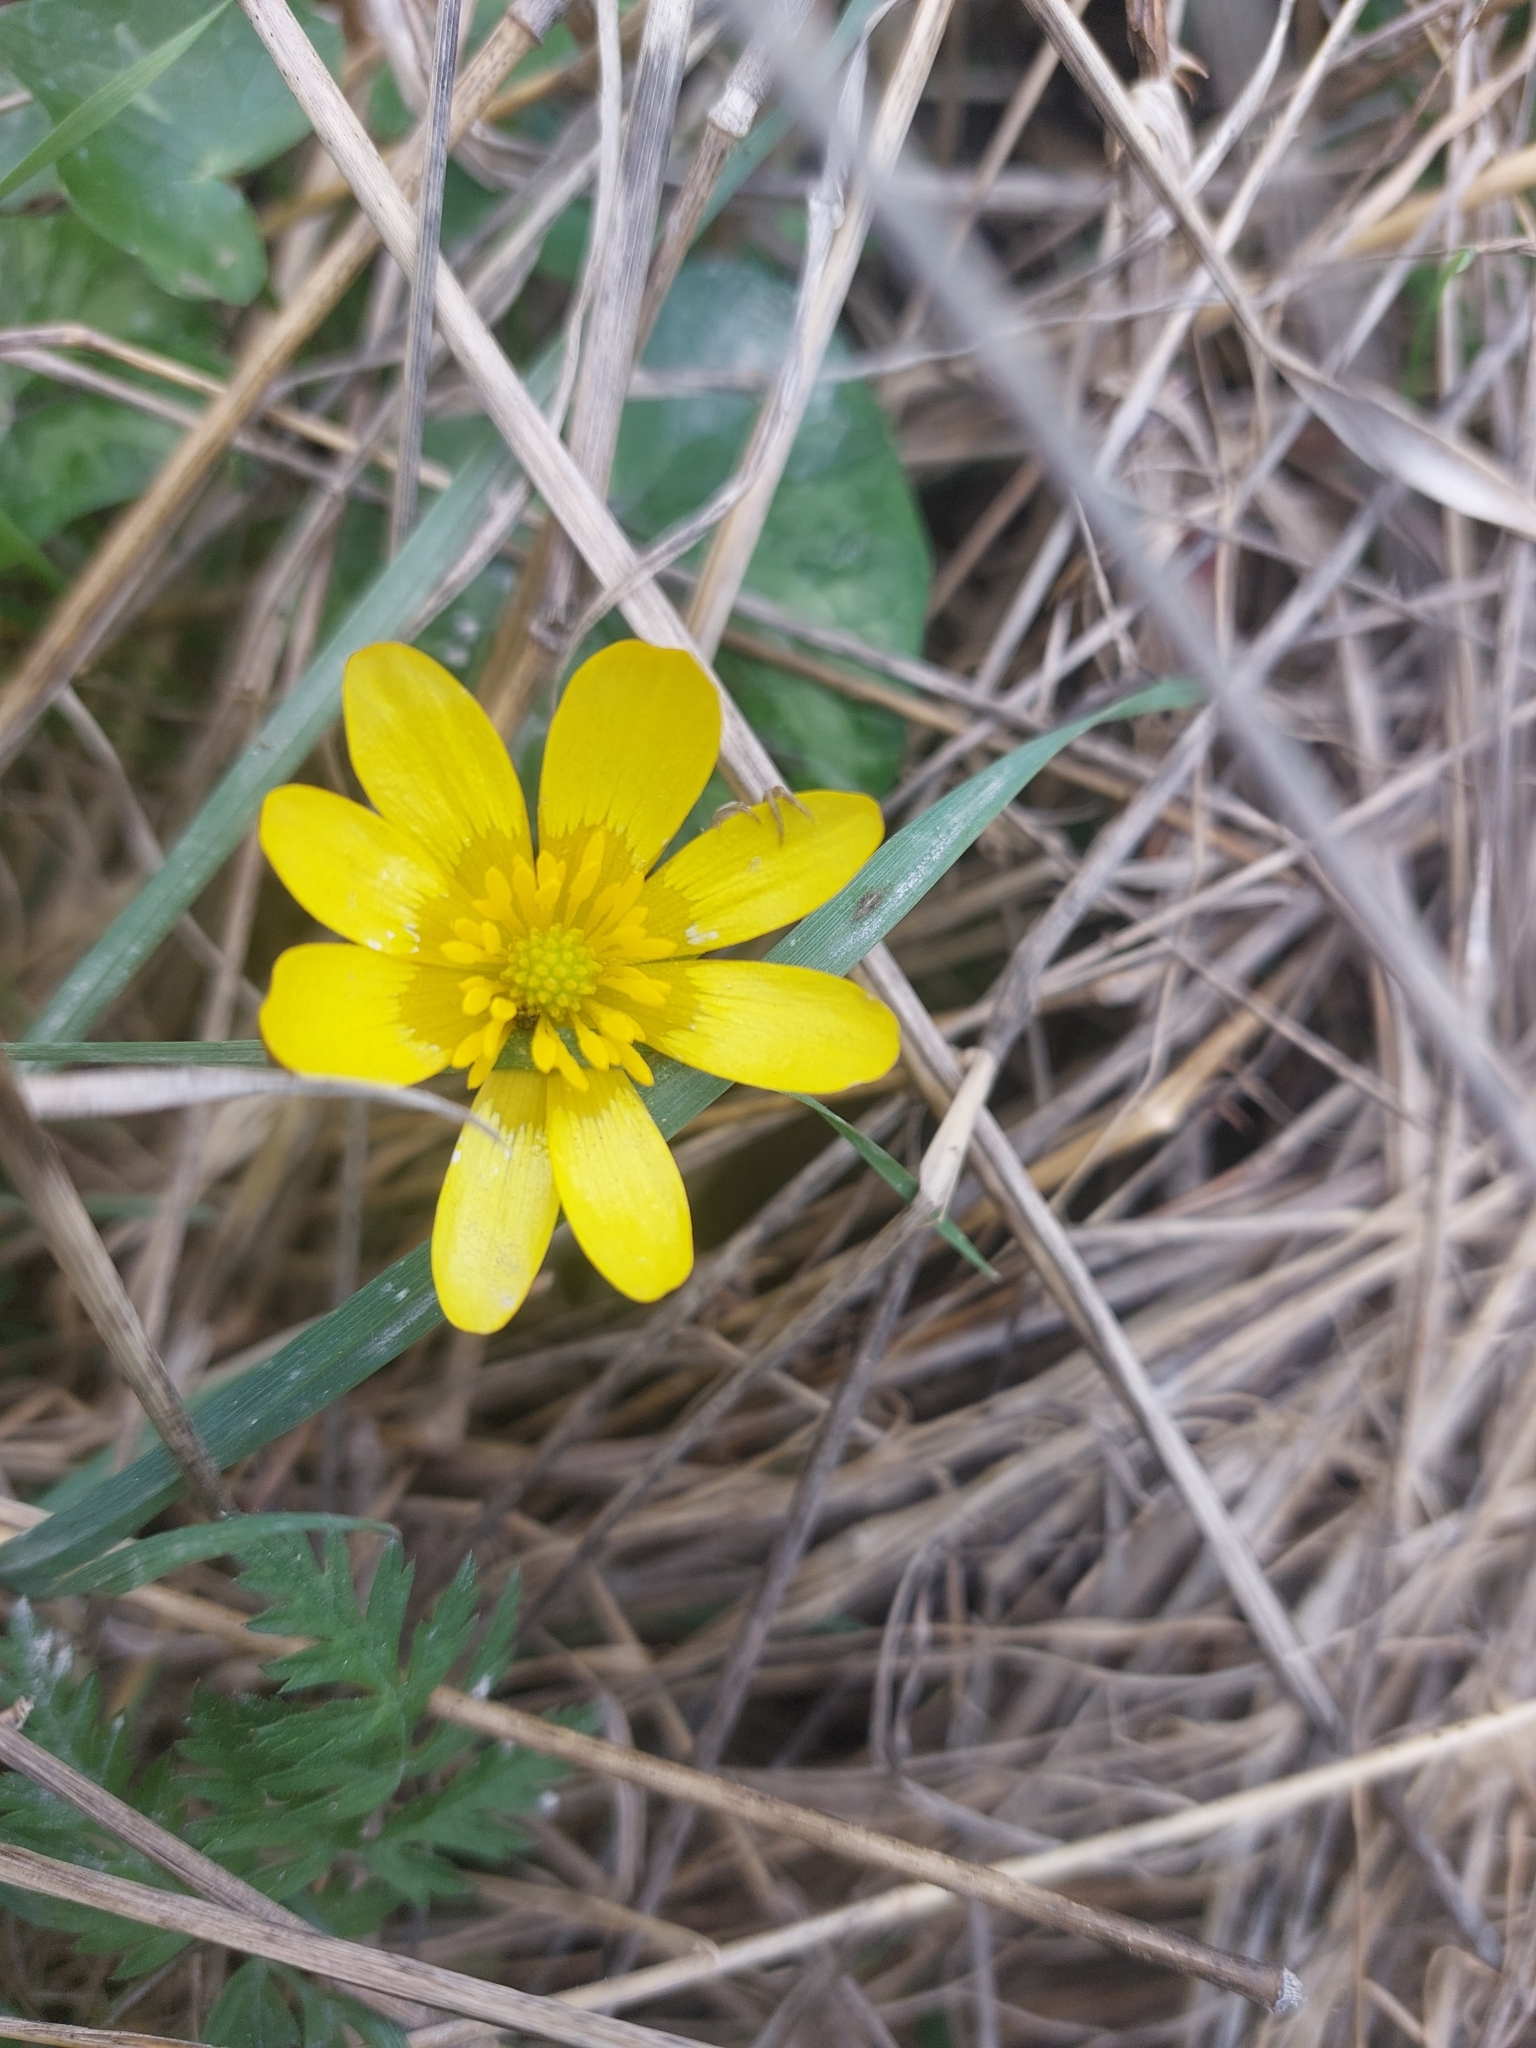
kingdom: Plantae
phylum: Tracheophyta
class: Magnoliopsida
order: Ranunculales
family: Ranunculaceae
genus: Ficaria
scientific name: Ficaria verna
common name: Lesser celandine
